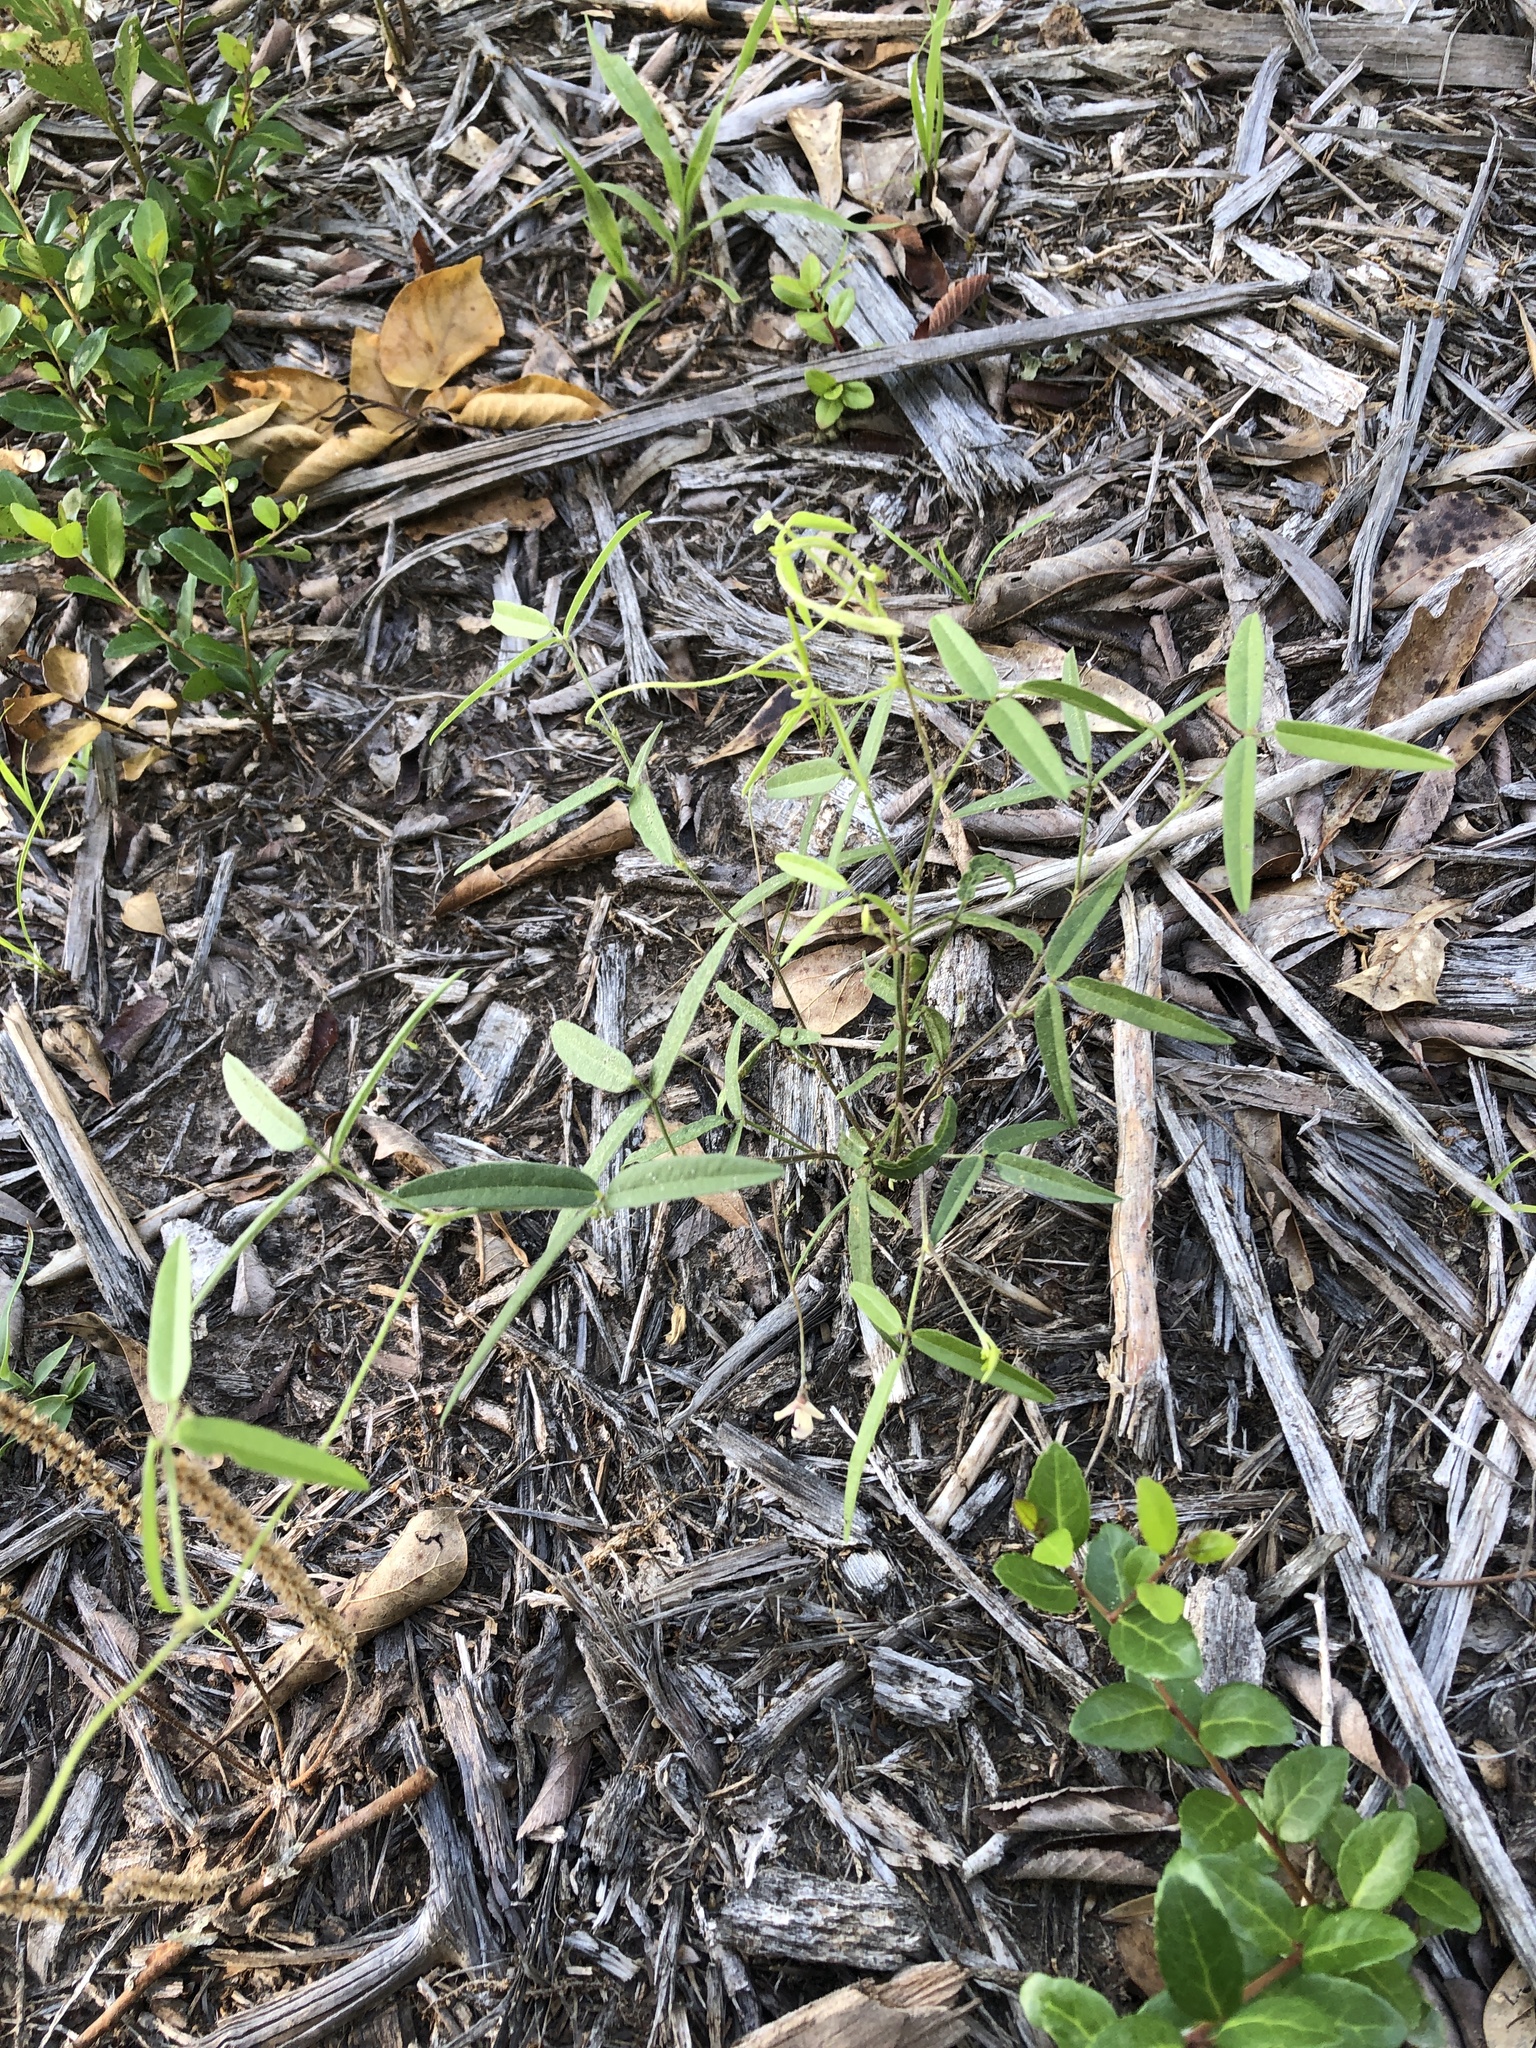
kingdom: Plantae
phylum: Tracheophyta
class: Magnoliopsida
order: Fabales
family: Fabaceae
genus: Strophostyles
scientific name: Strophostyles leiosperma
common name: Smooth-seed wild bean
